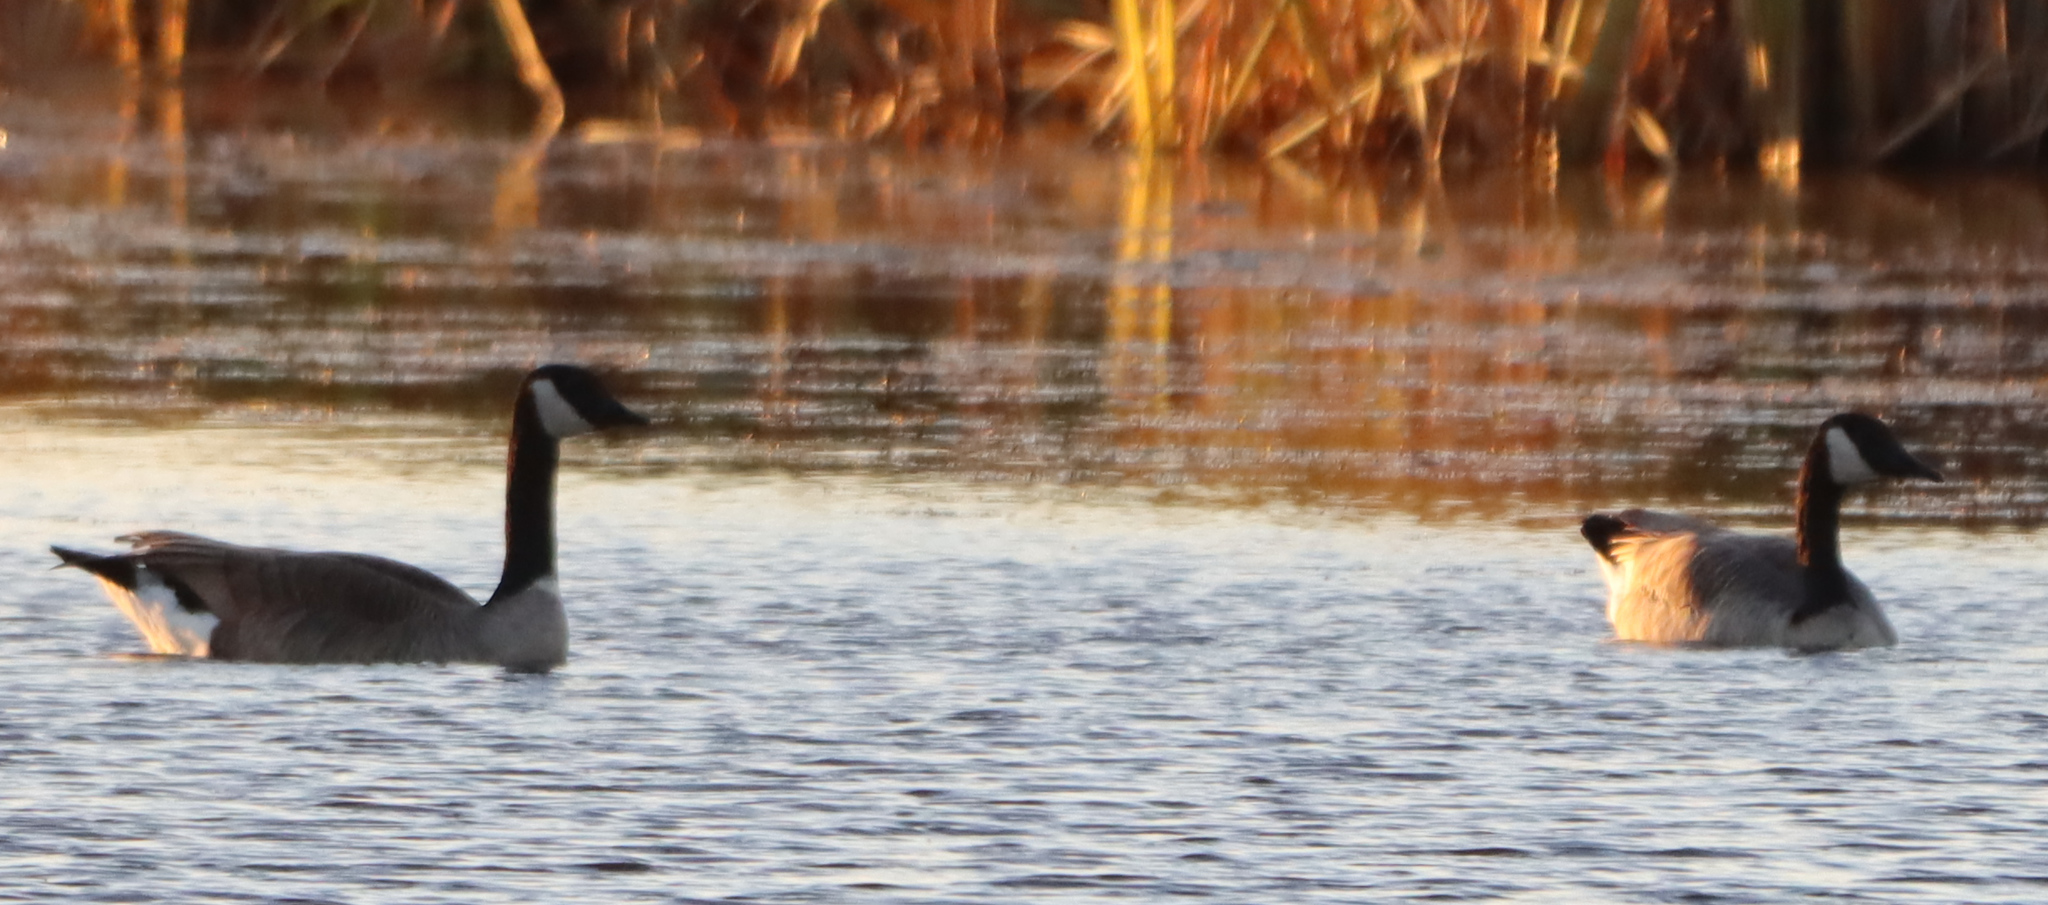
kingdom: Animalia
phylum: Chordata
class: Aves
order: Anseriformes
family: Anatidae
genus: Branta
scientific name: Branta canadensis
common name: Canada goose
